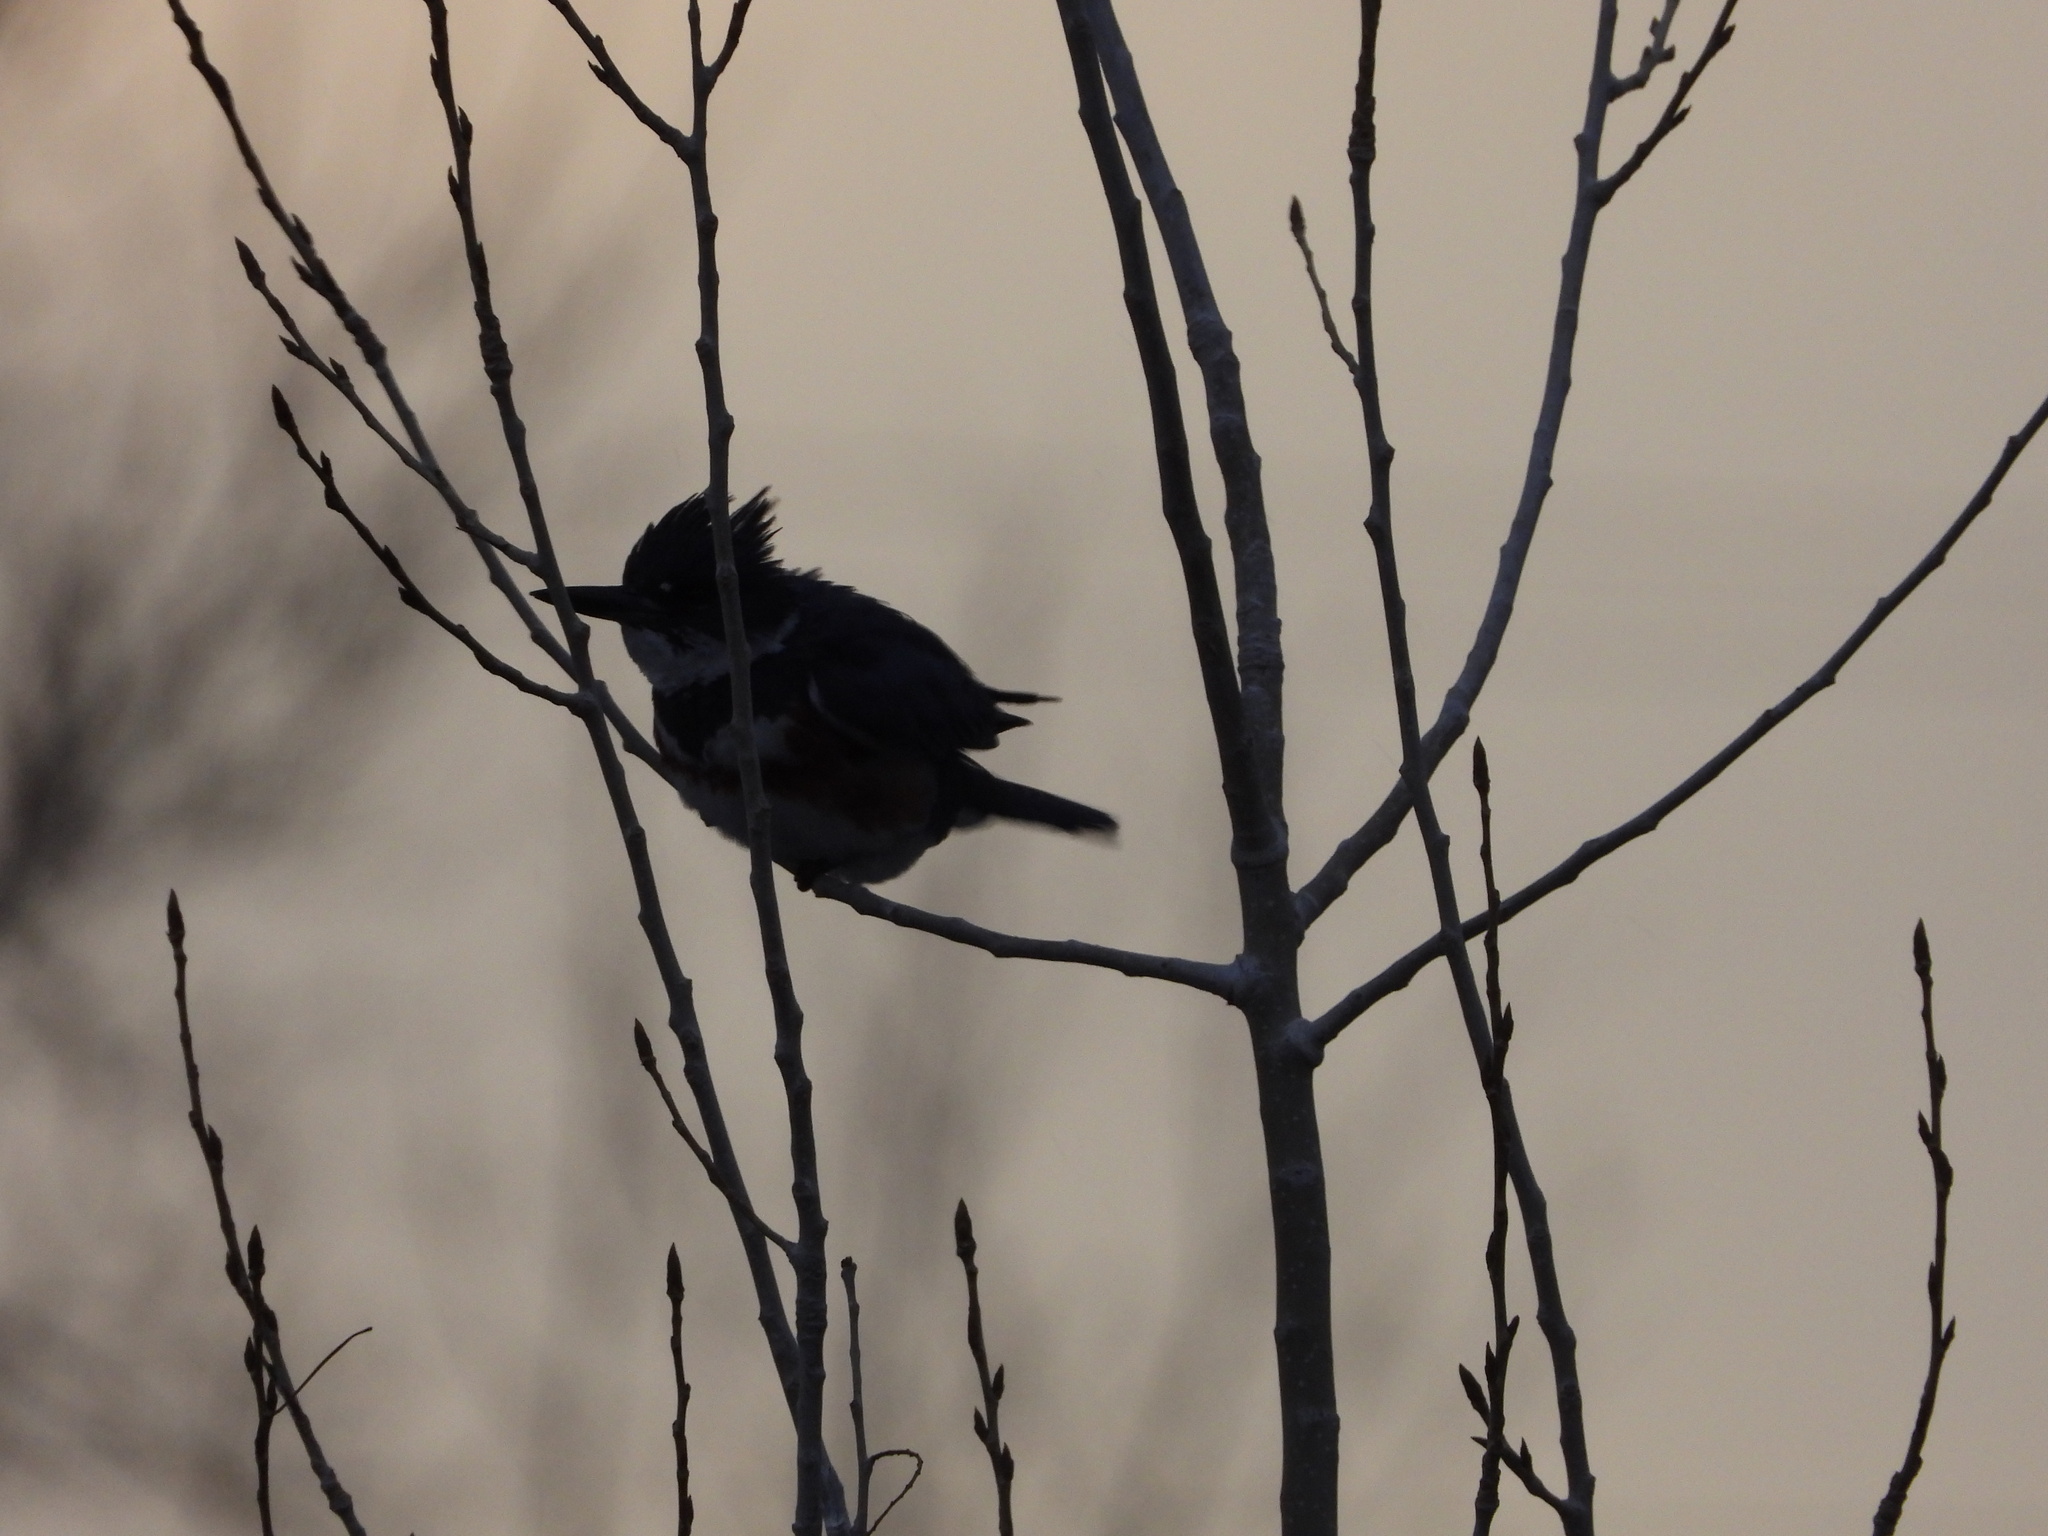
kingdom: Animalia
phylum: Chordata
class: Aves
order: Coraciiformes
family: Alcedinidae
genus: Megaceryle
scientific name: Megaceryle alcyon
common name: Belted kingfisher
